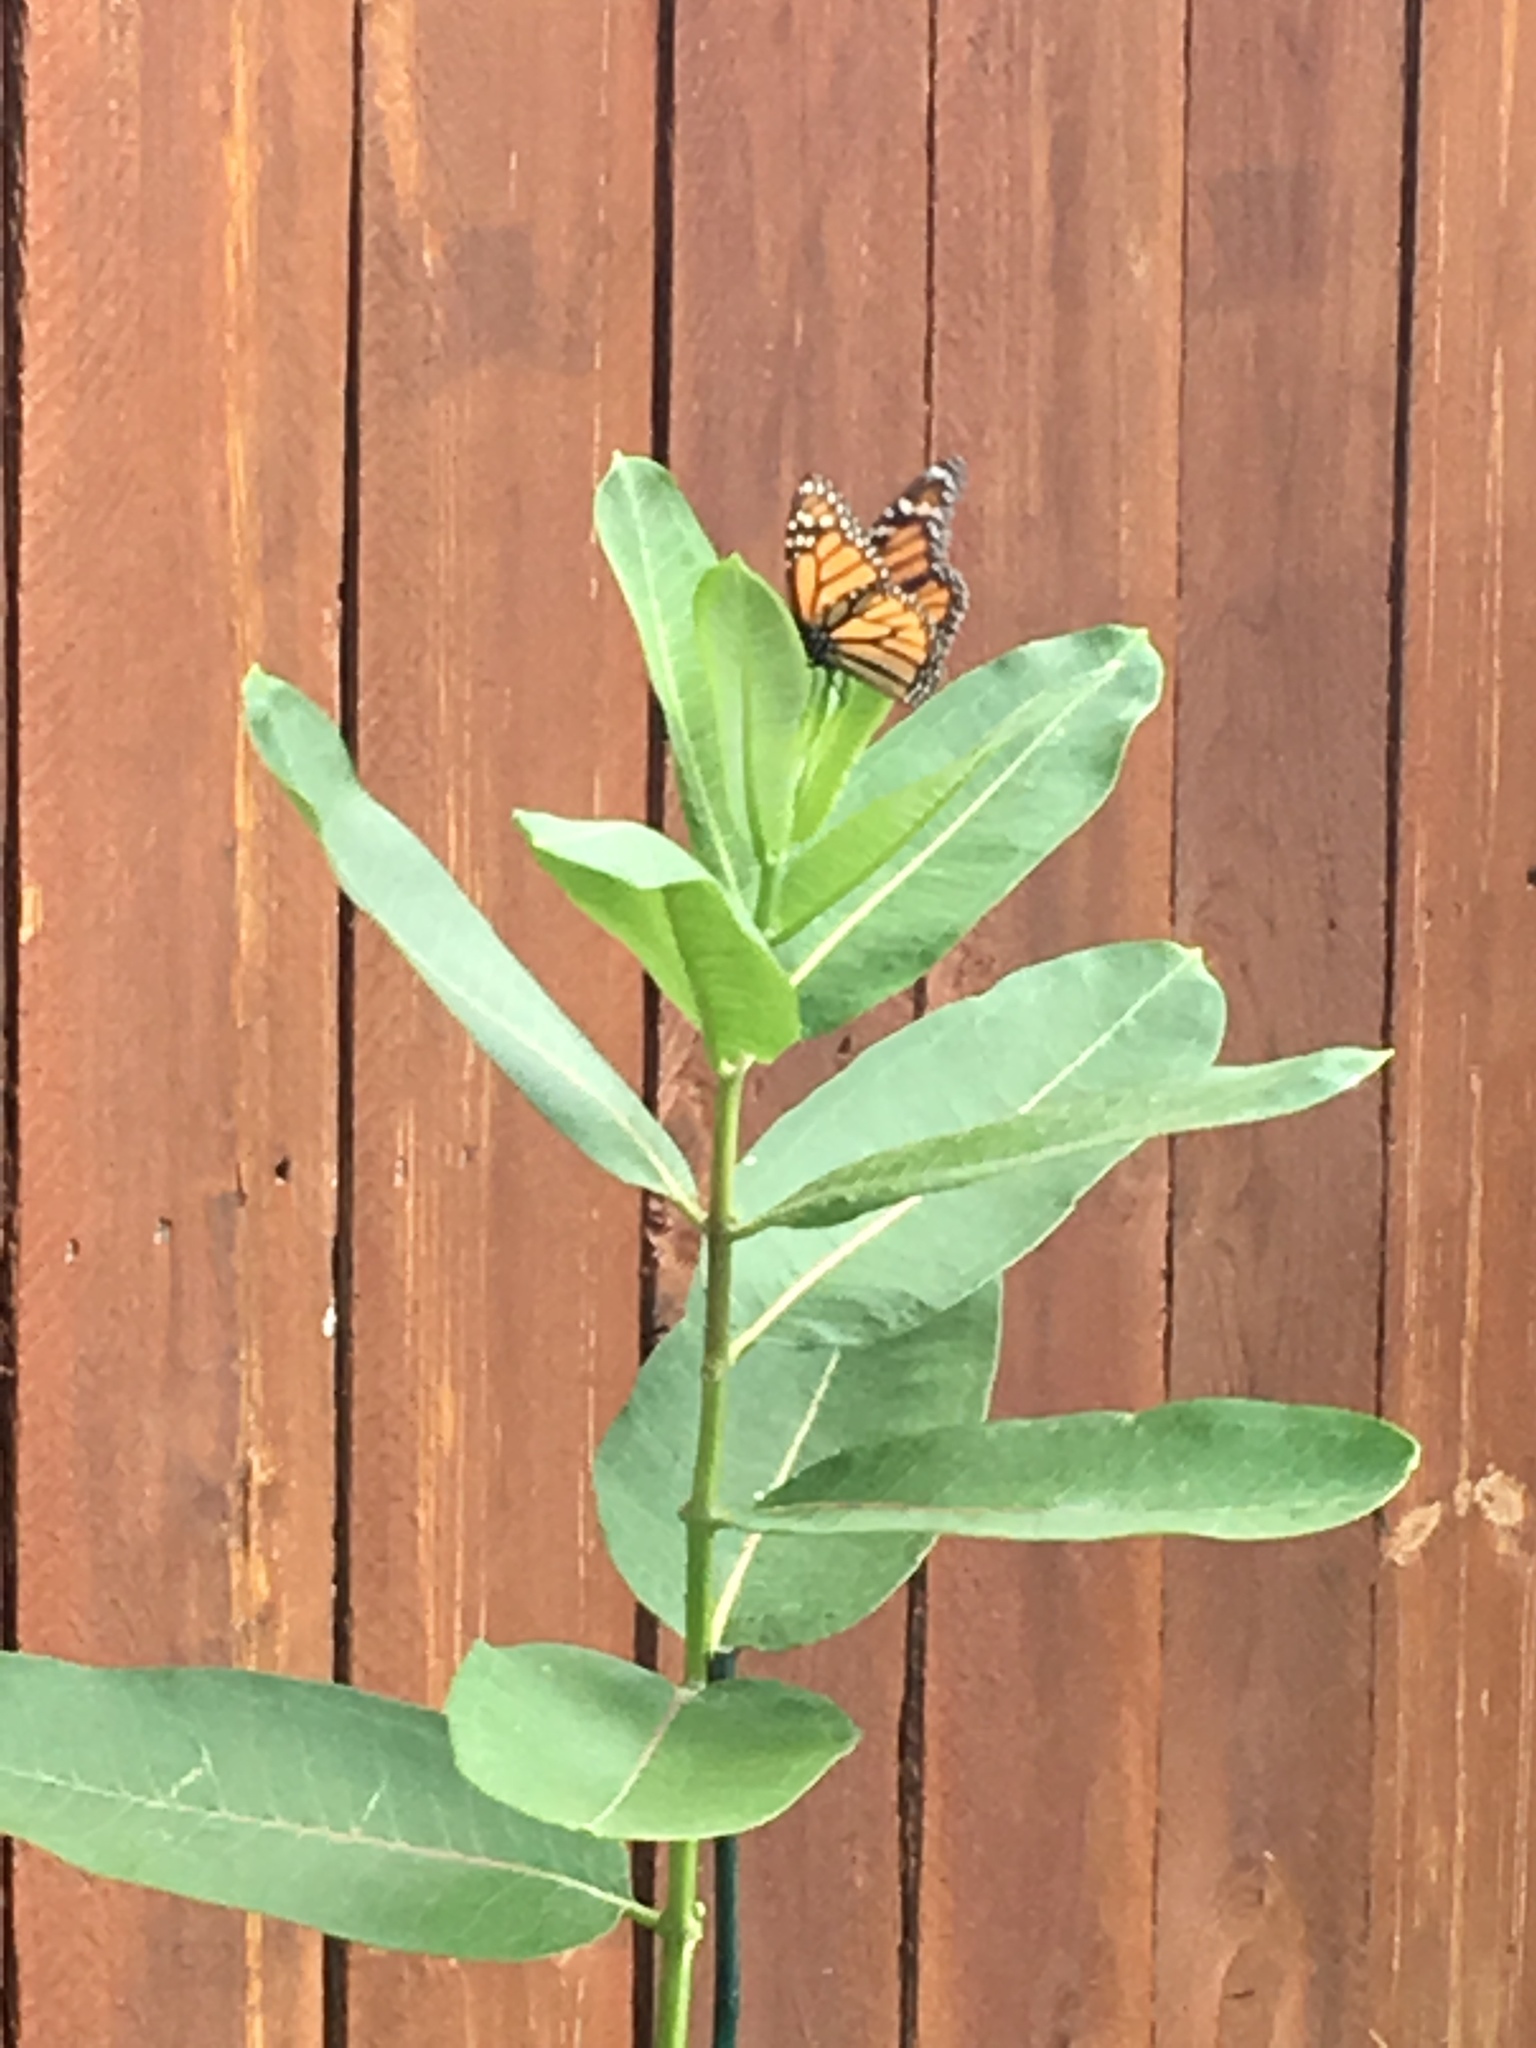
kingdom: Animalia
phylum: Arthropoda
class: Insecta
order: Lepidoptera
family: Nymphalidae
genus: Danaus
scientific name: Danaus plexippus
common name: Monarch
